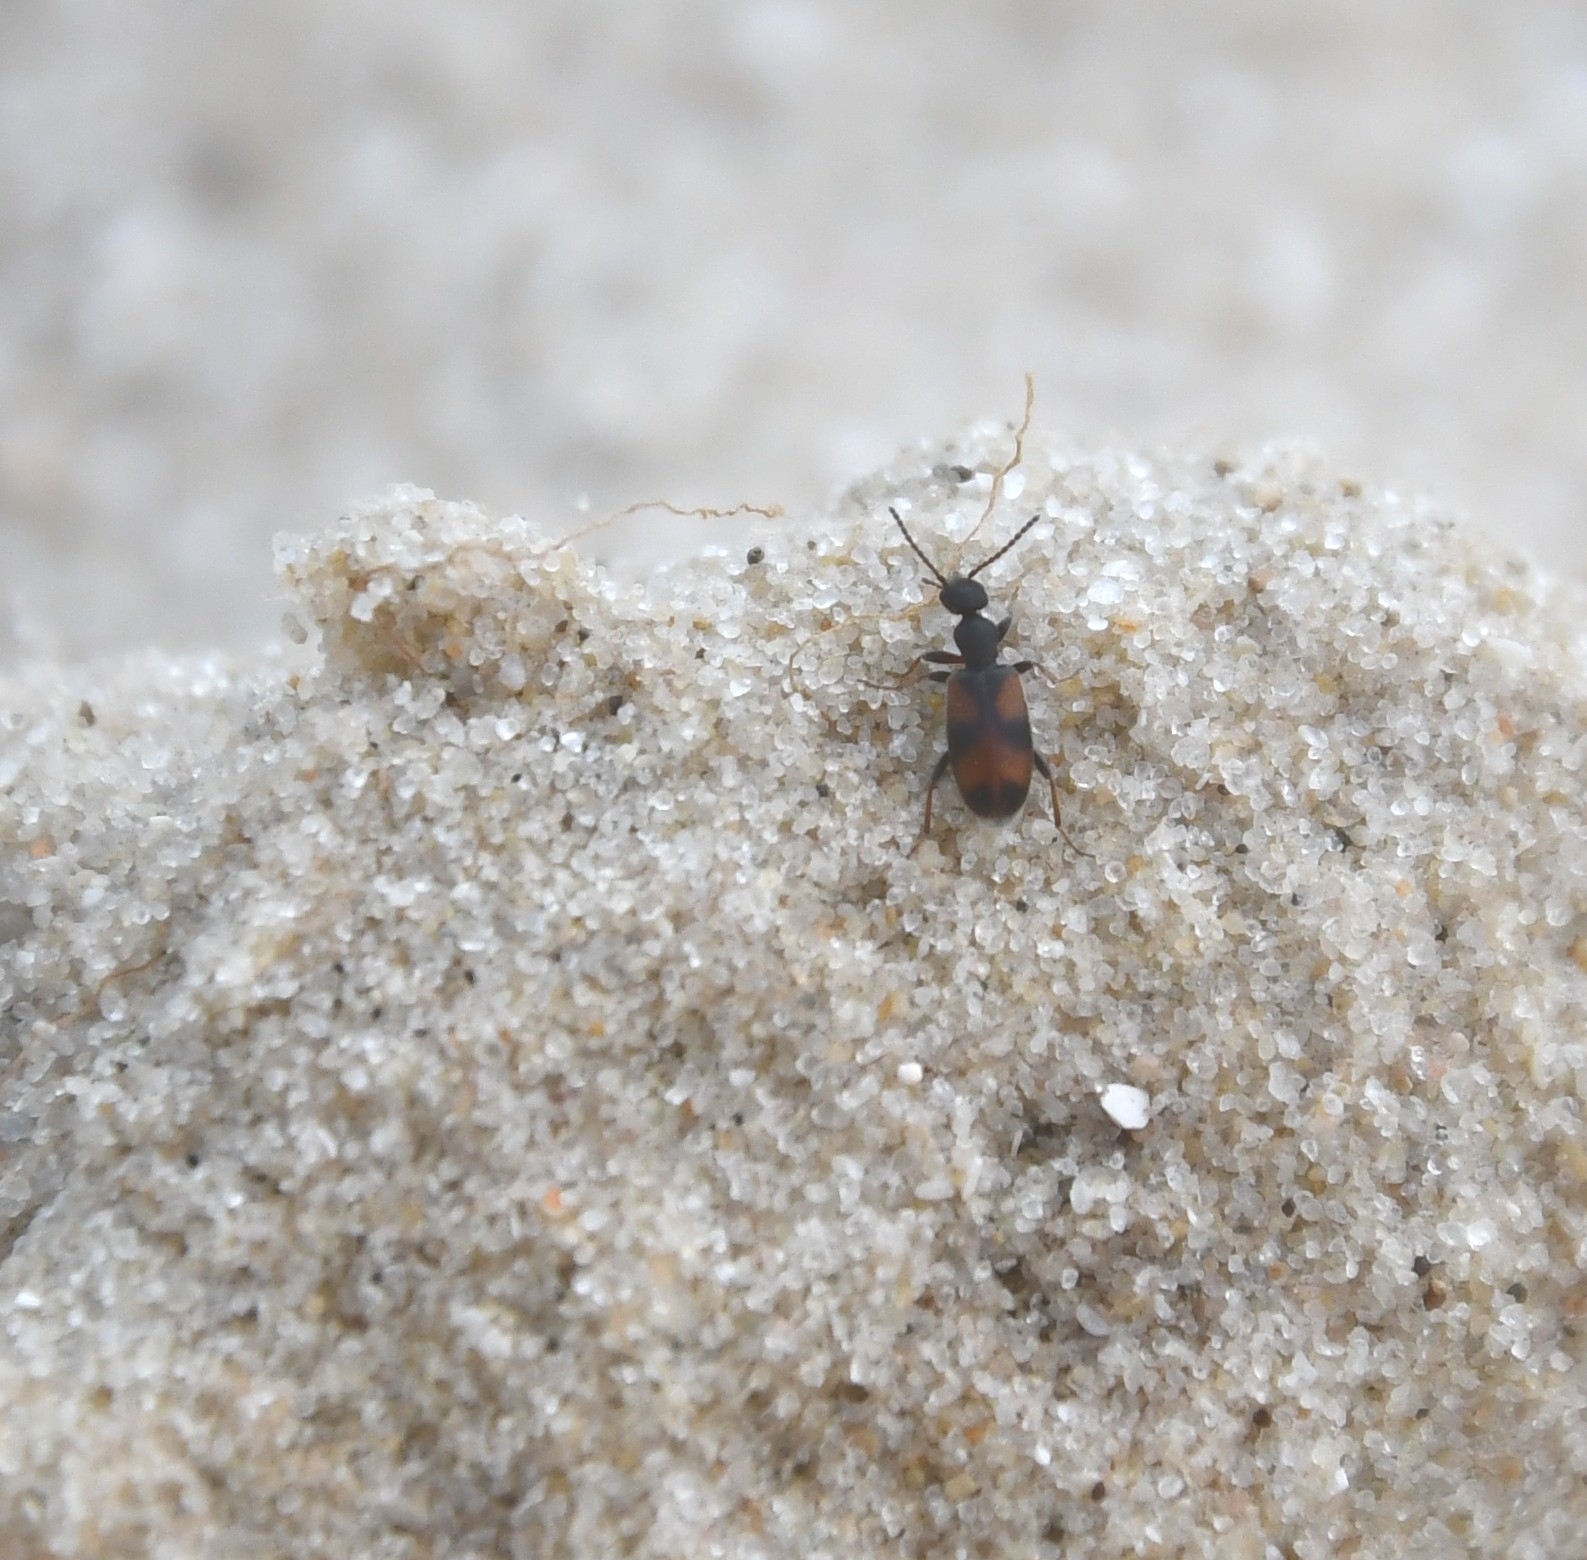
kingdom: Animalia
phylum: Arthropoda
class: Insecta
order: Coleoptera
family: Anthicidae
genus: Anthicus
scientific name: Anthicus antherinus
